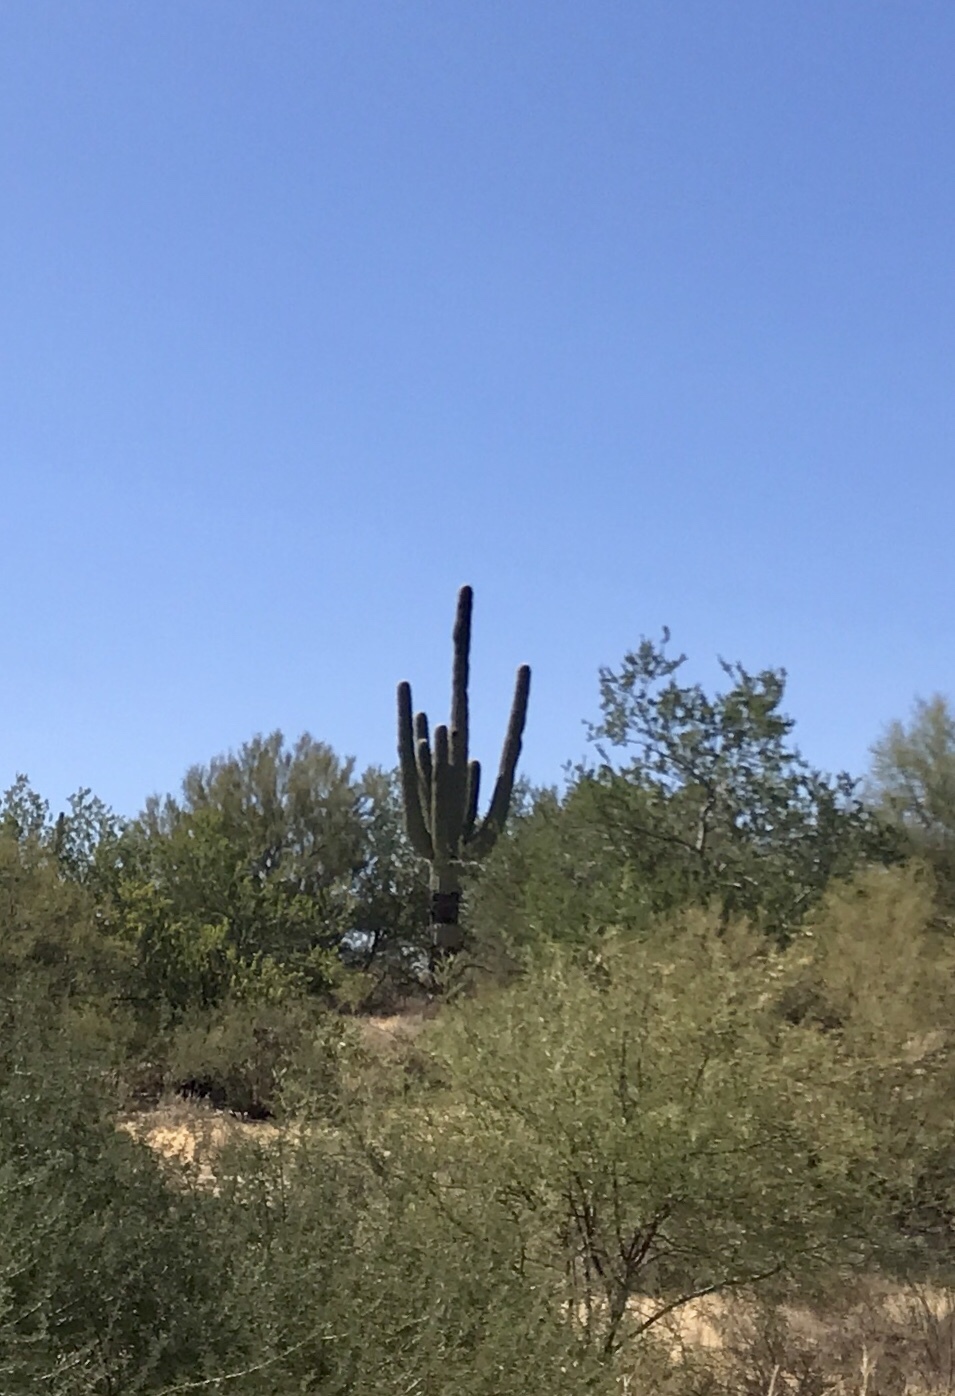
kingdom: Plantae
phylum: Tracheophyta
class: Magnoliopsida
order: Caryophyllales
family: Cactaceae
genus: Carnegiea
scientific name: Carnegiea gigantea
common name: Saguaro
